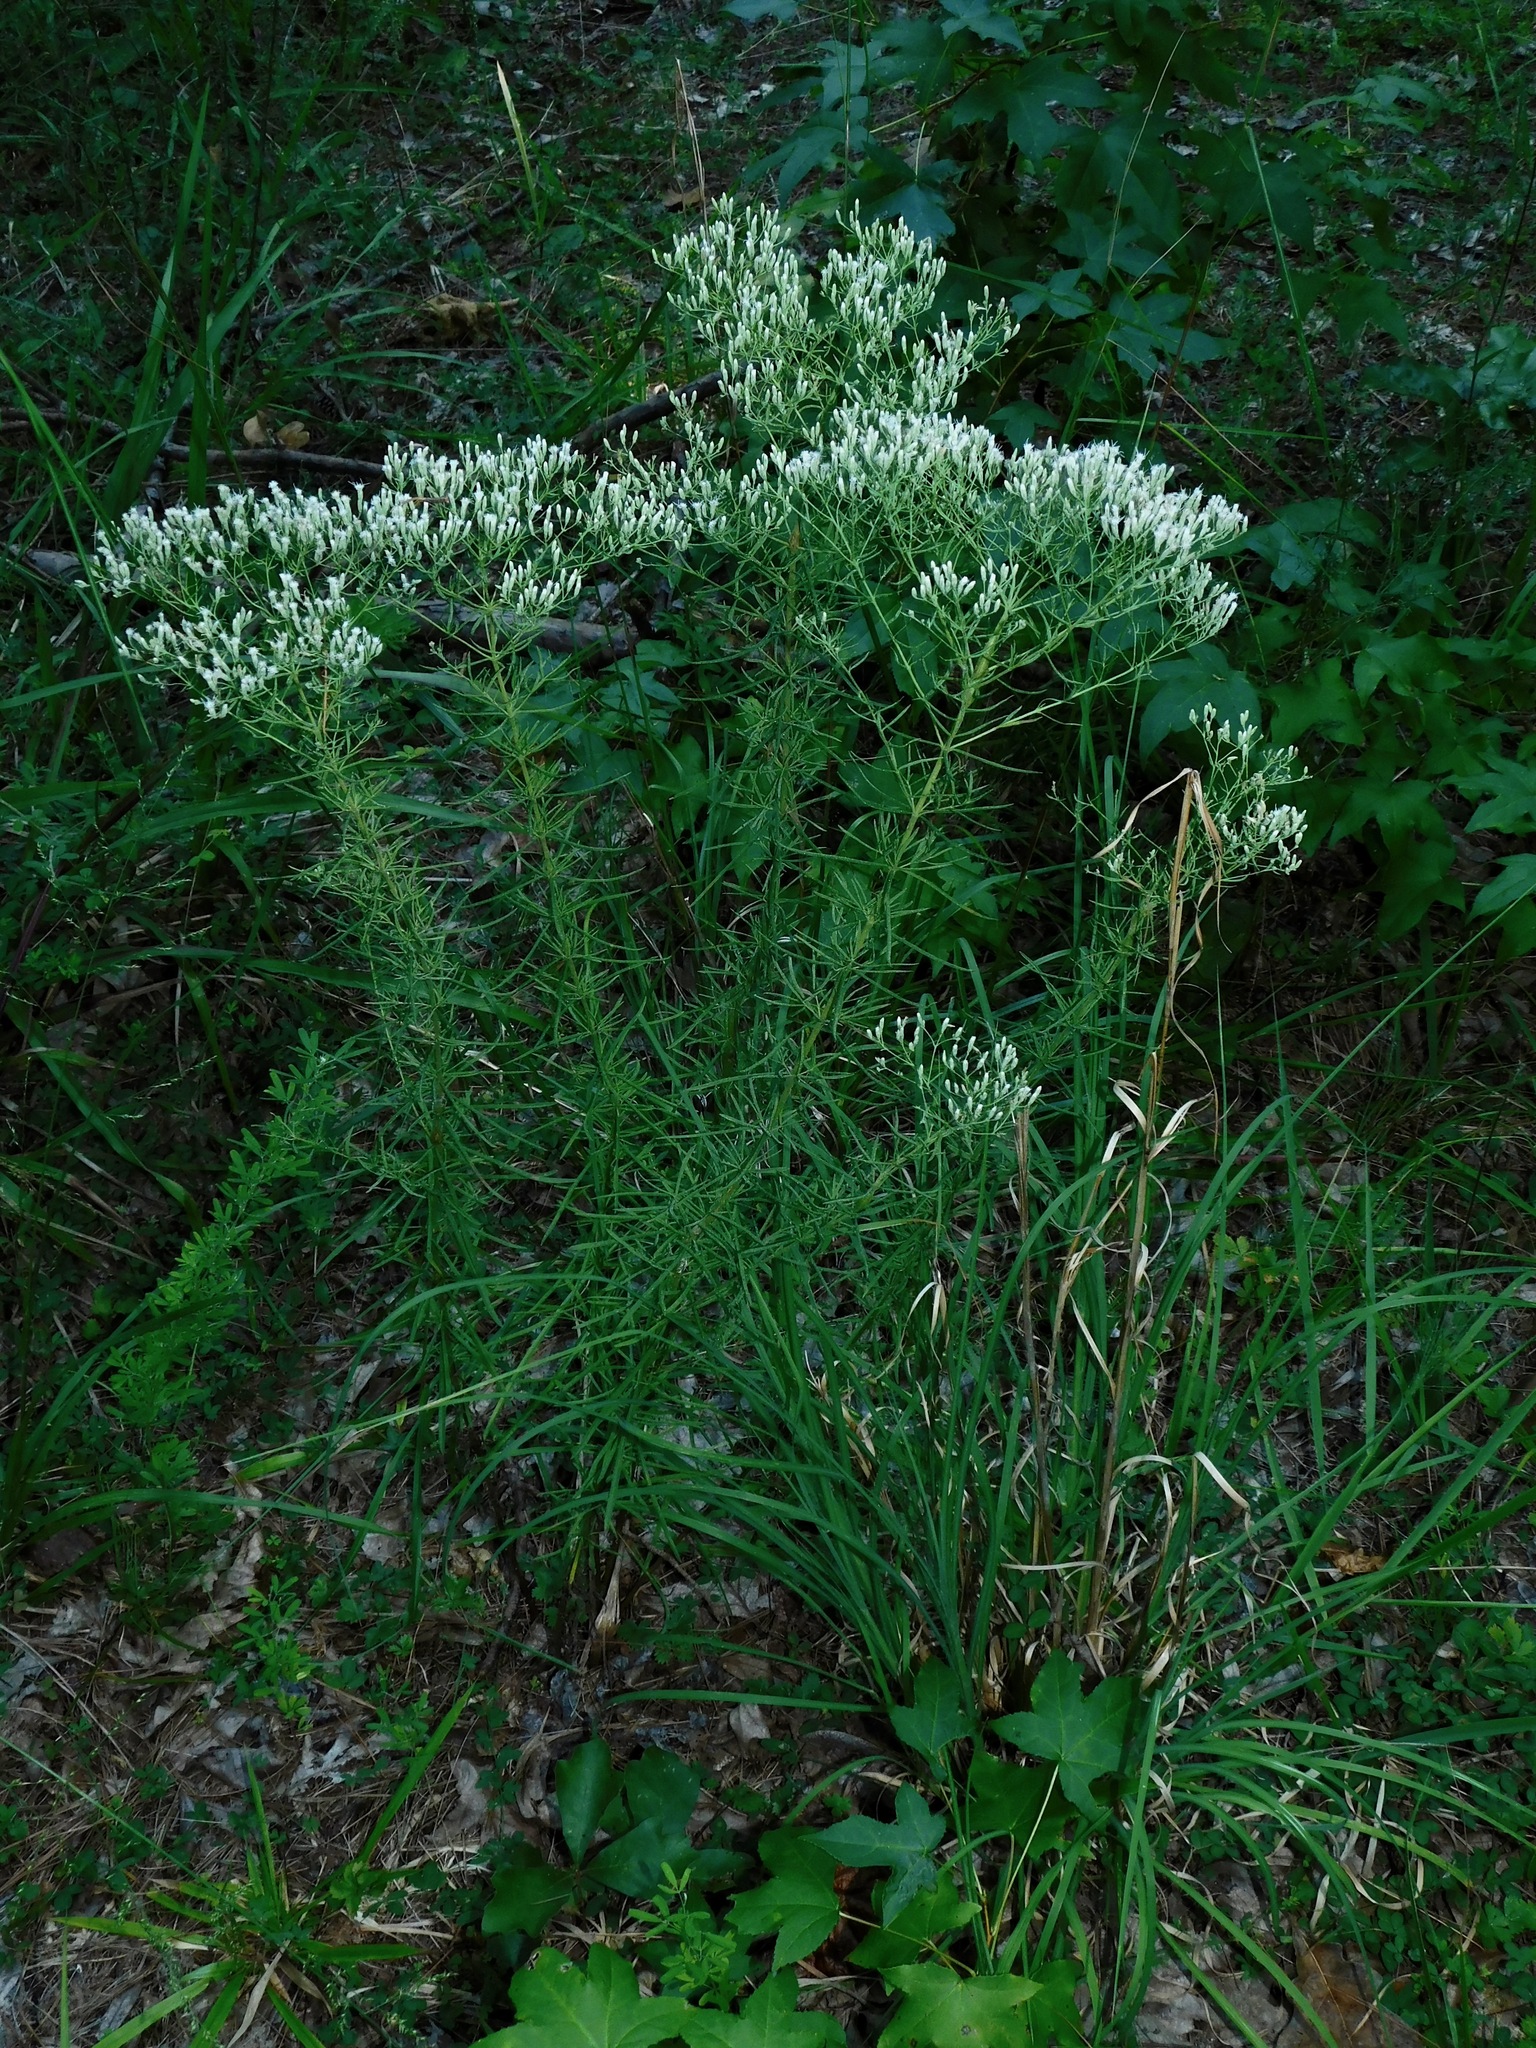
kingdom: Plantae
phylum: Tracheophyta
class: Magnoliopsida
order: Asterales
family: Asteraceae
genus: Eupatorium
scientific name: Eupatorium hyssopifolium
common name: Hyssop-leaf thoroughwort
